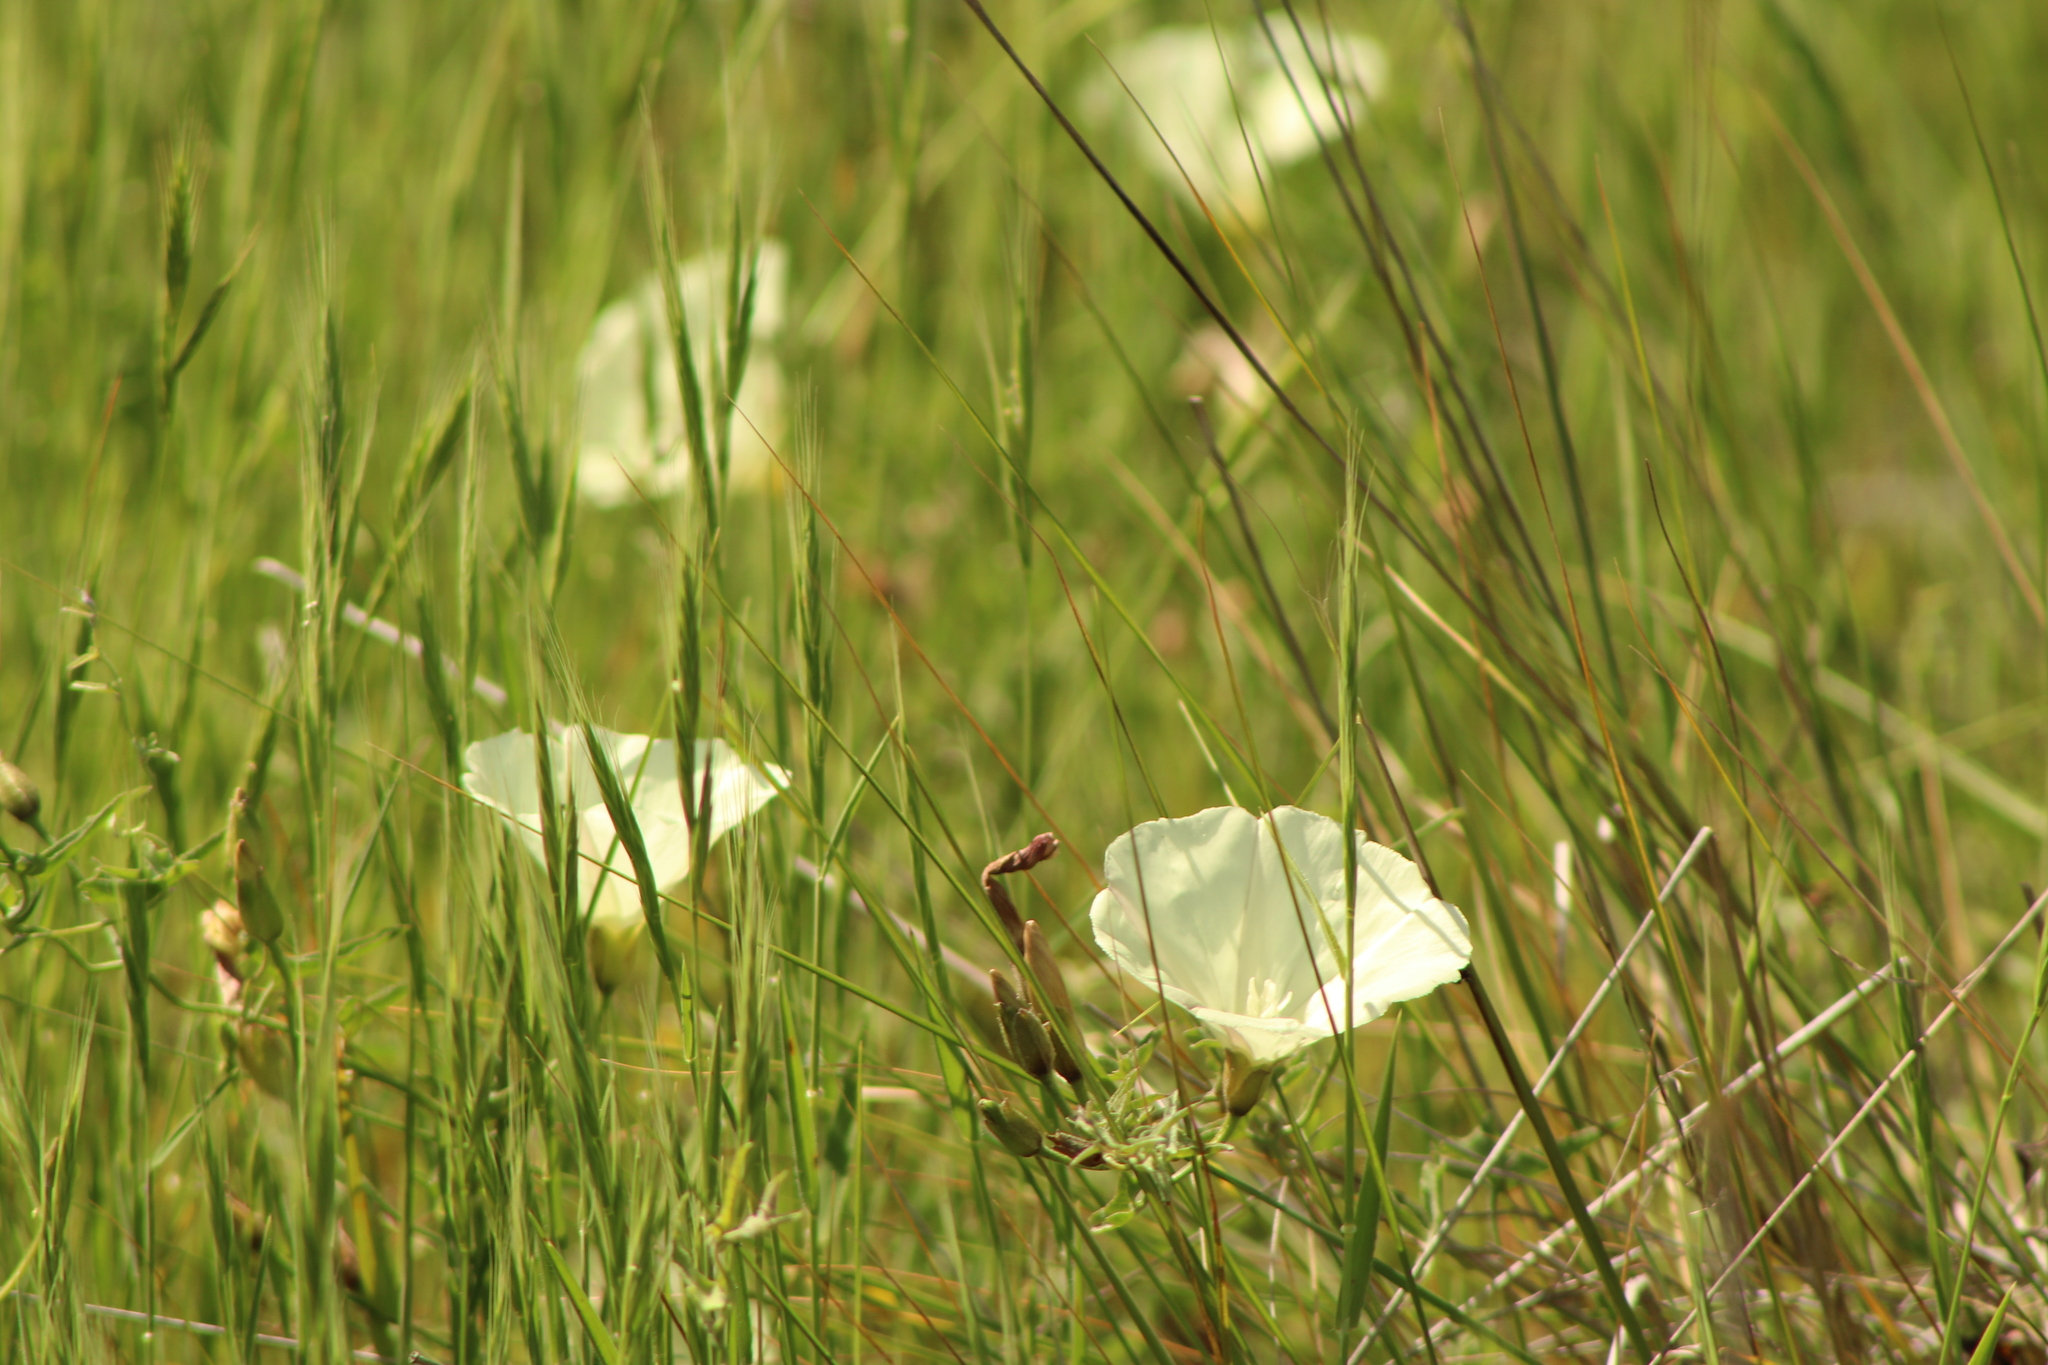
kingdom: Plantae
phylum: Tracheophyta
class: Magnoliopsida
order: Solanales
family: Convolvulaceae
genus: Calystegia
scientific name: Calystegia macrostegia
